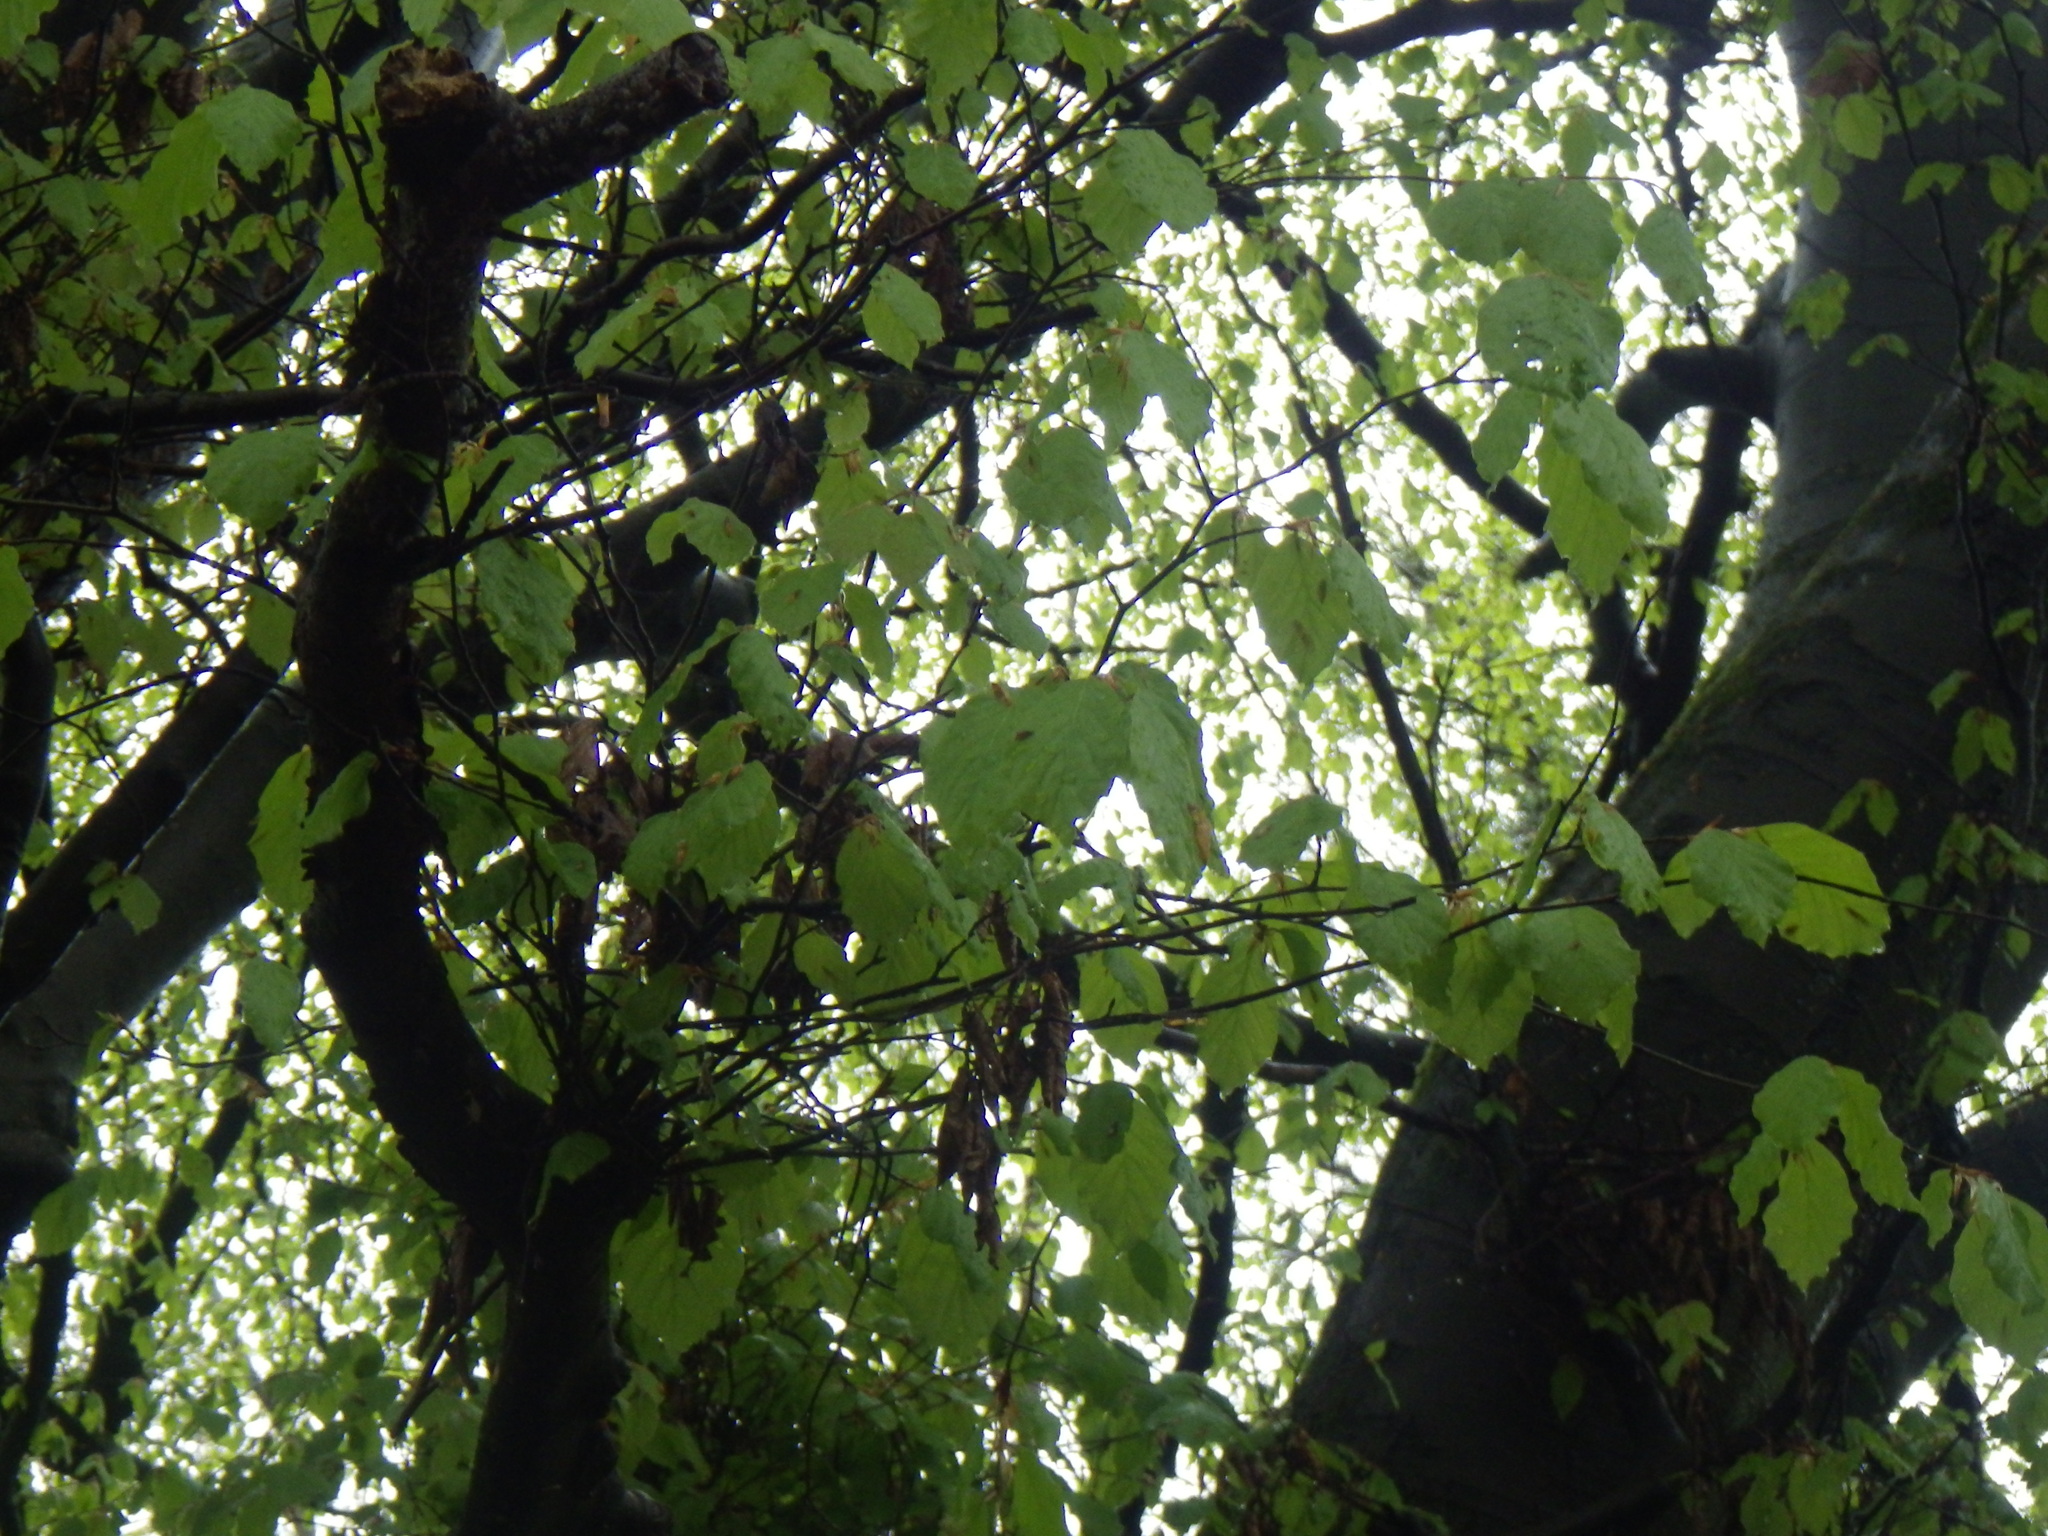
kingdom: Plantae
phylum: Tracheophyta
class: Magnoliopsida
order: Fagales
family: Fagaceae
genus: Fagus
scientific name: Fagus sylvatica
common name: Beech
